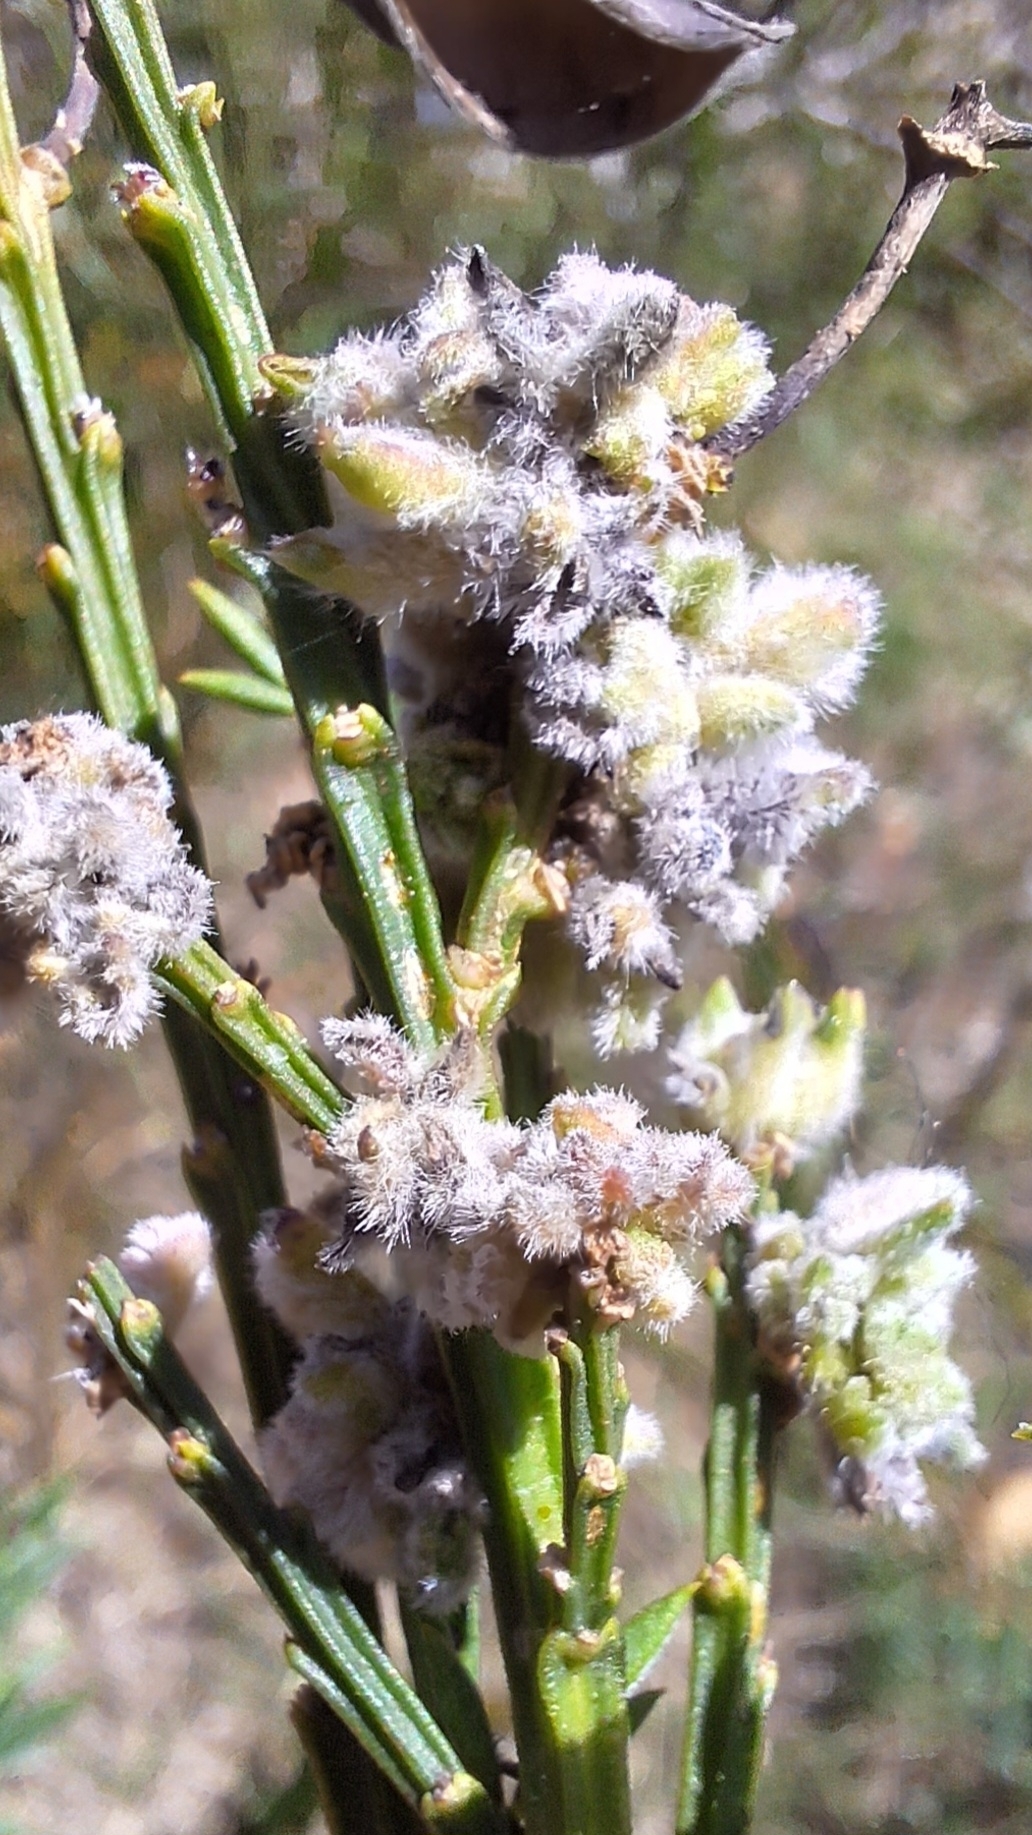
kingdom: Animalia
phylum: Arthropoda
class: Arachnida
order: Trombidiformes
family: Eriophyidae
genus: Aceria
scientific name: Aceria genistae
